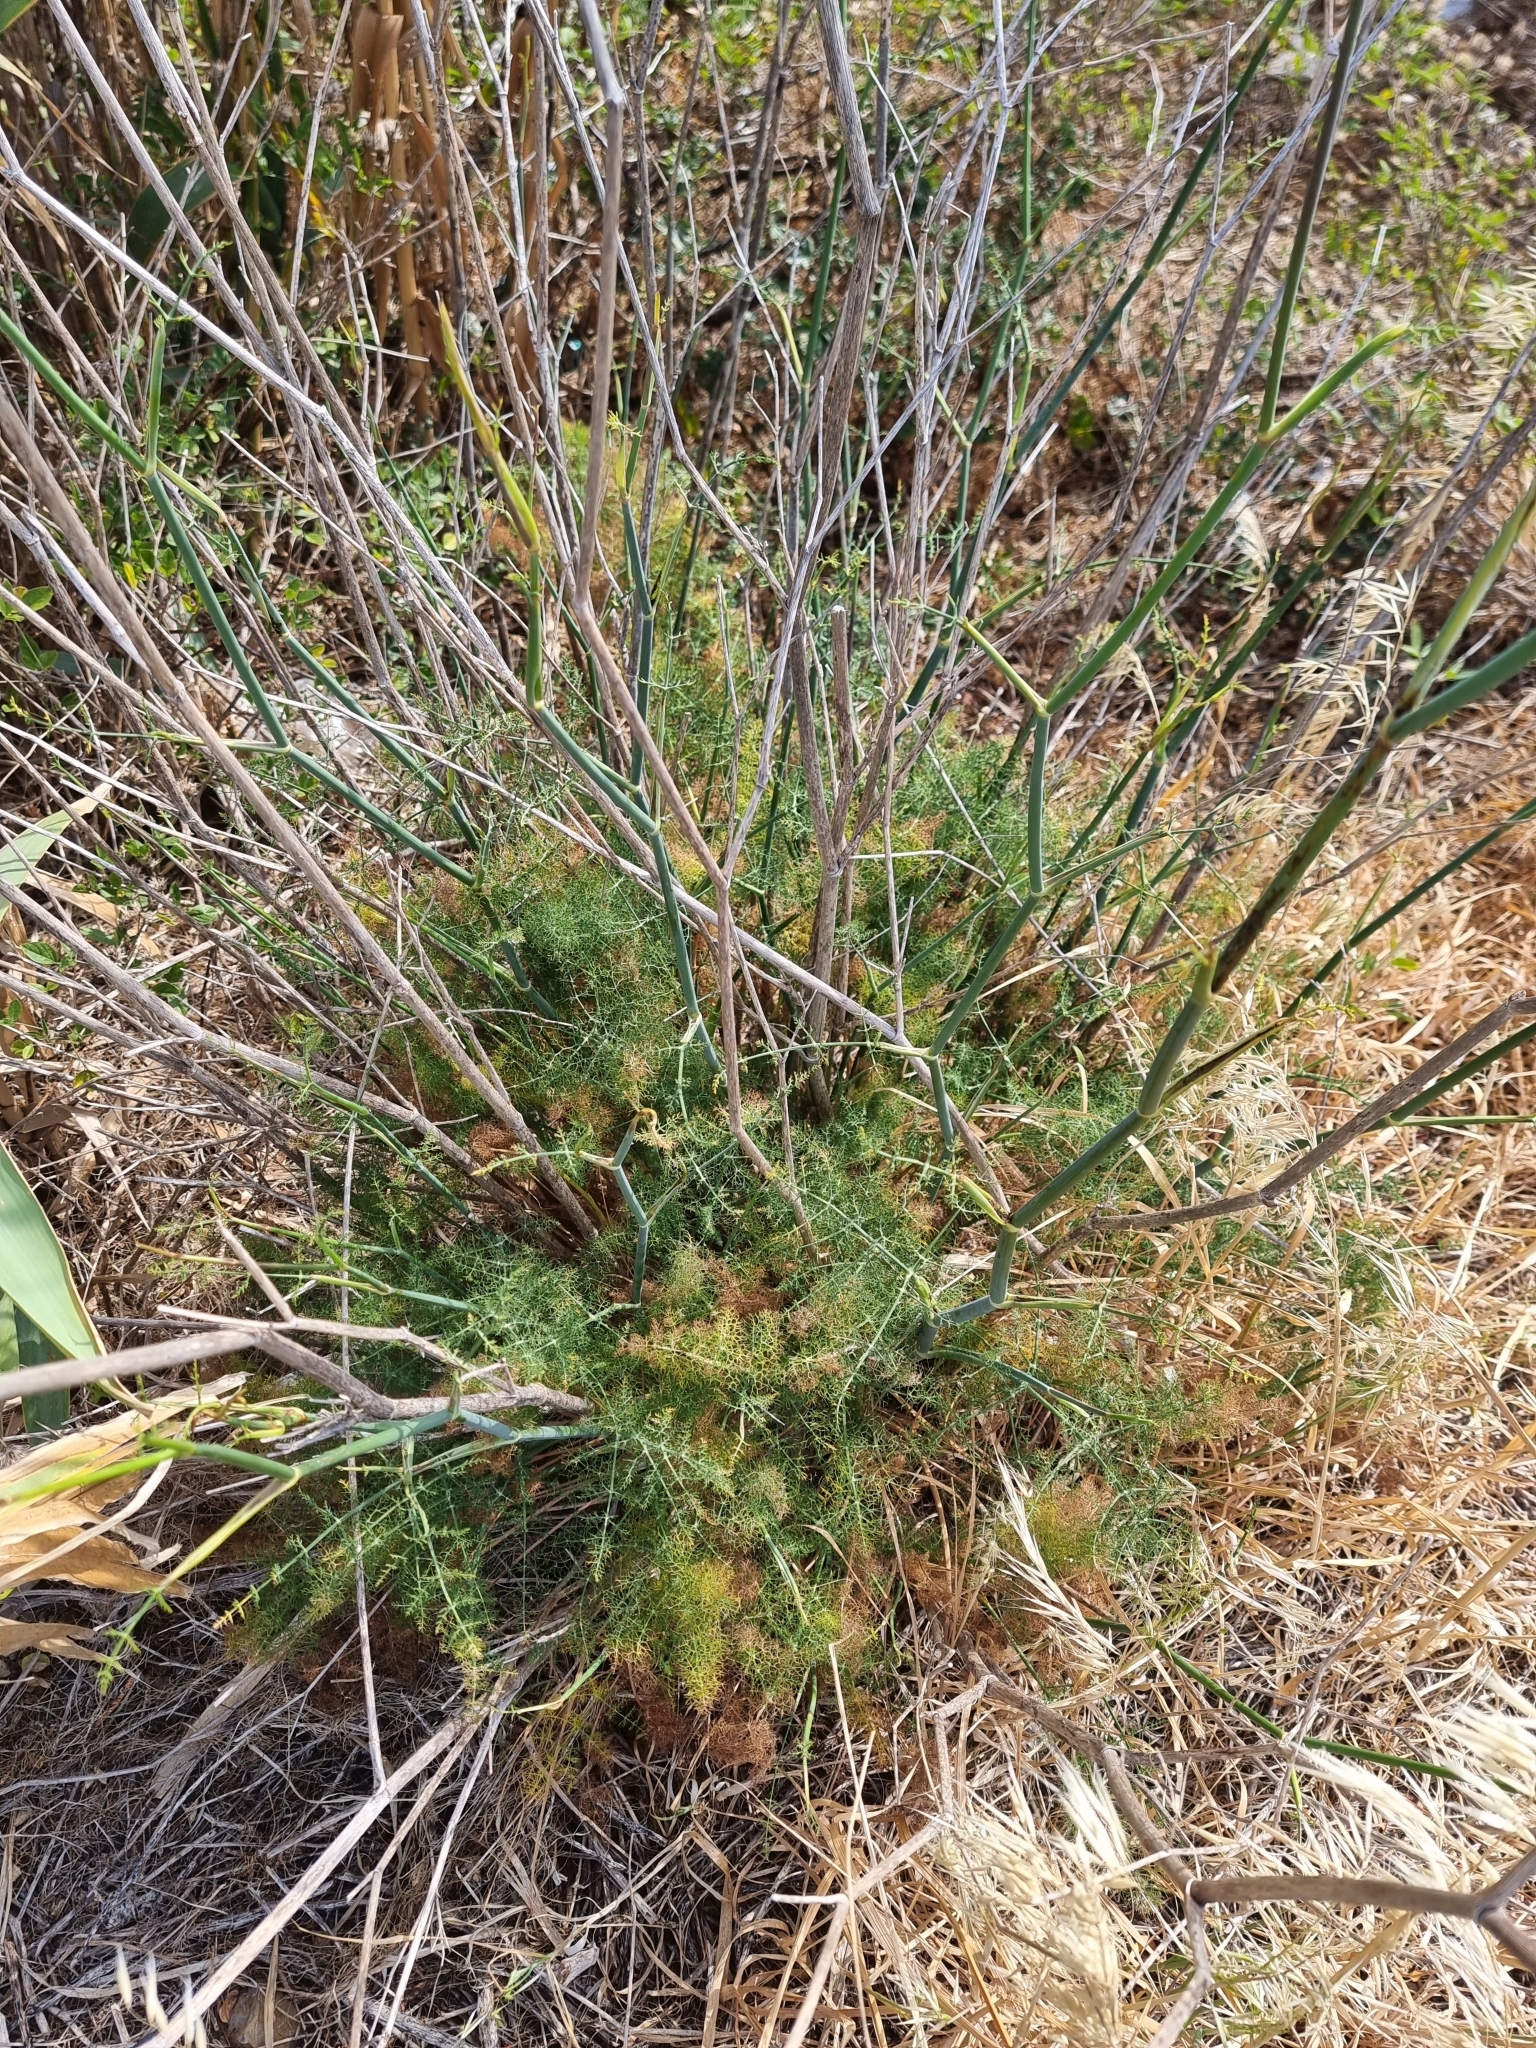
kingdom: Plantae
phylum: Tracheophyta
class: Magnoliopsida
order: Apiales
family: Apiaceae
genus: Foeniculum
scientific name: Foeniculum vulgare
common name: Fennel
